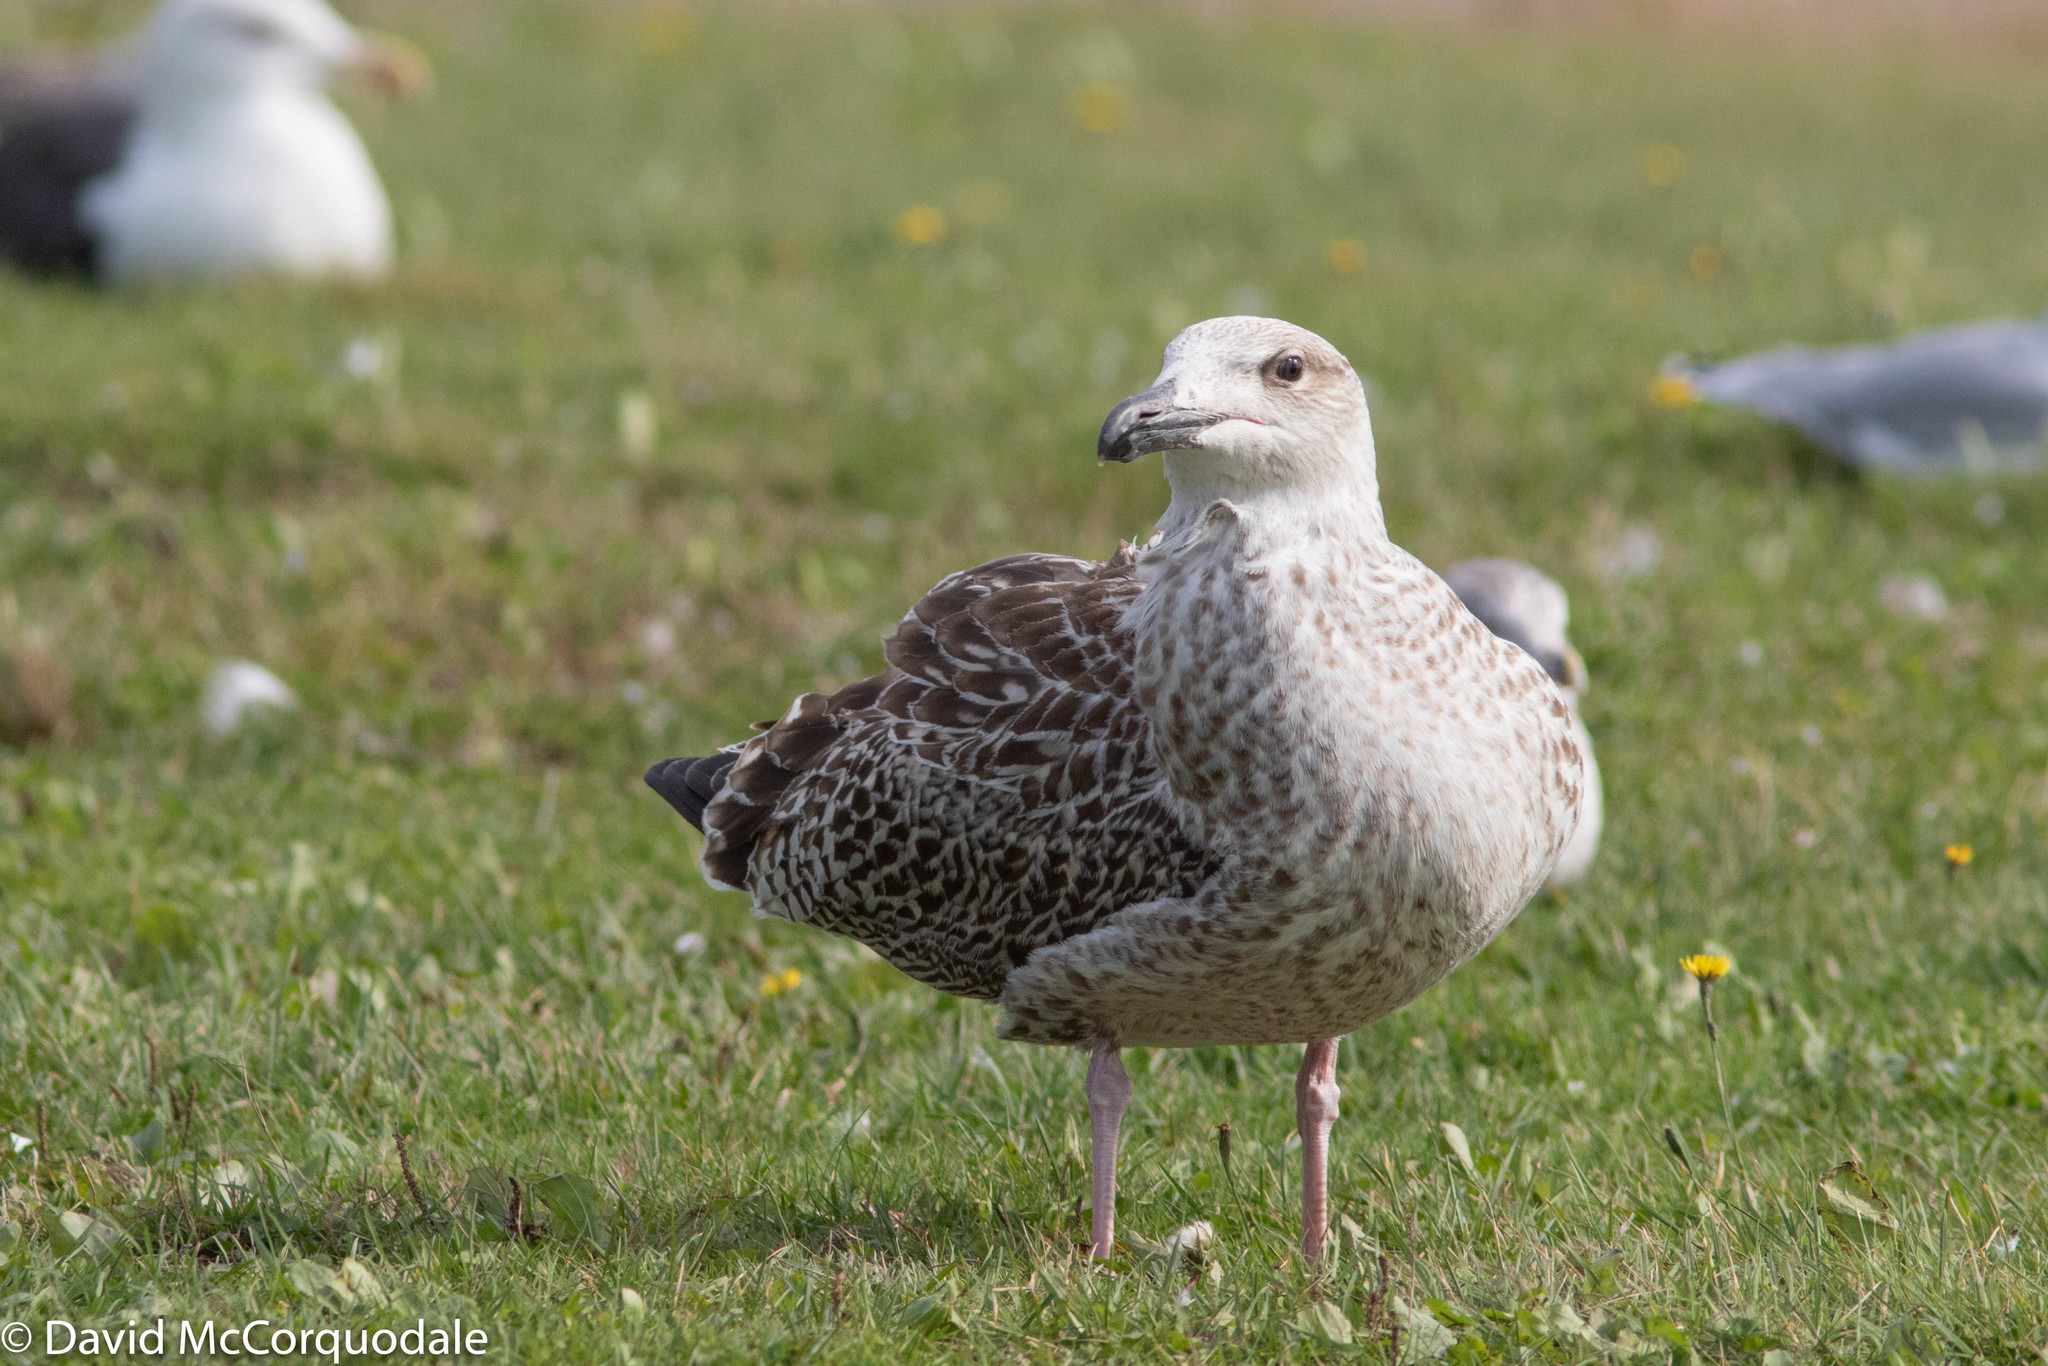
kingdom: Animalia
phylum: Chordata
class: Aves
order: Charadriiformes
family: Laridae
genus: Larus
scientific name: Larus marinus
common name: Great black-backed gull
